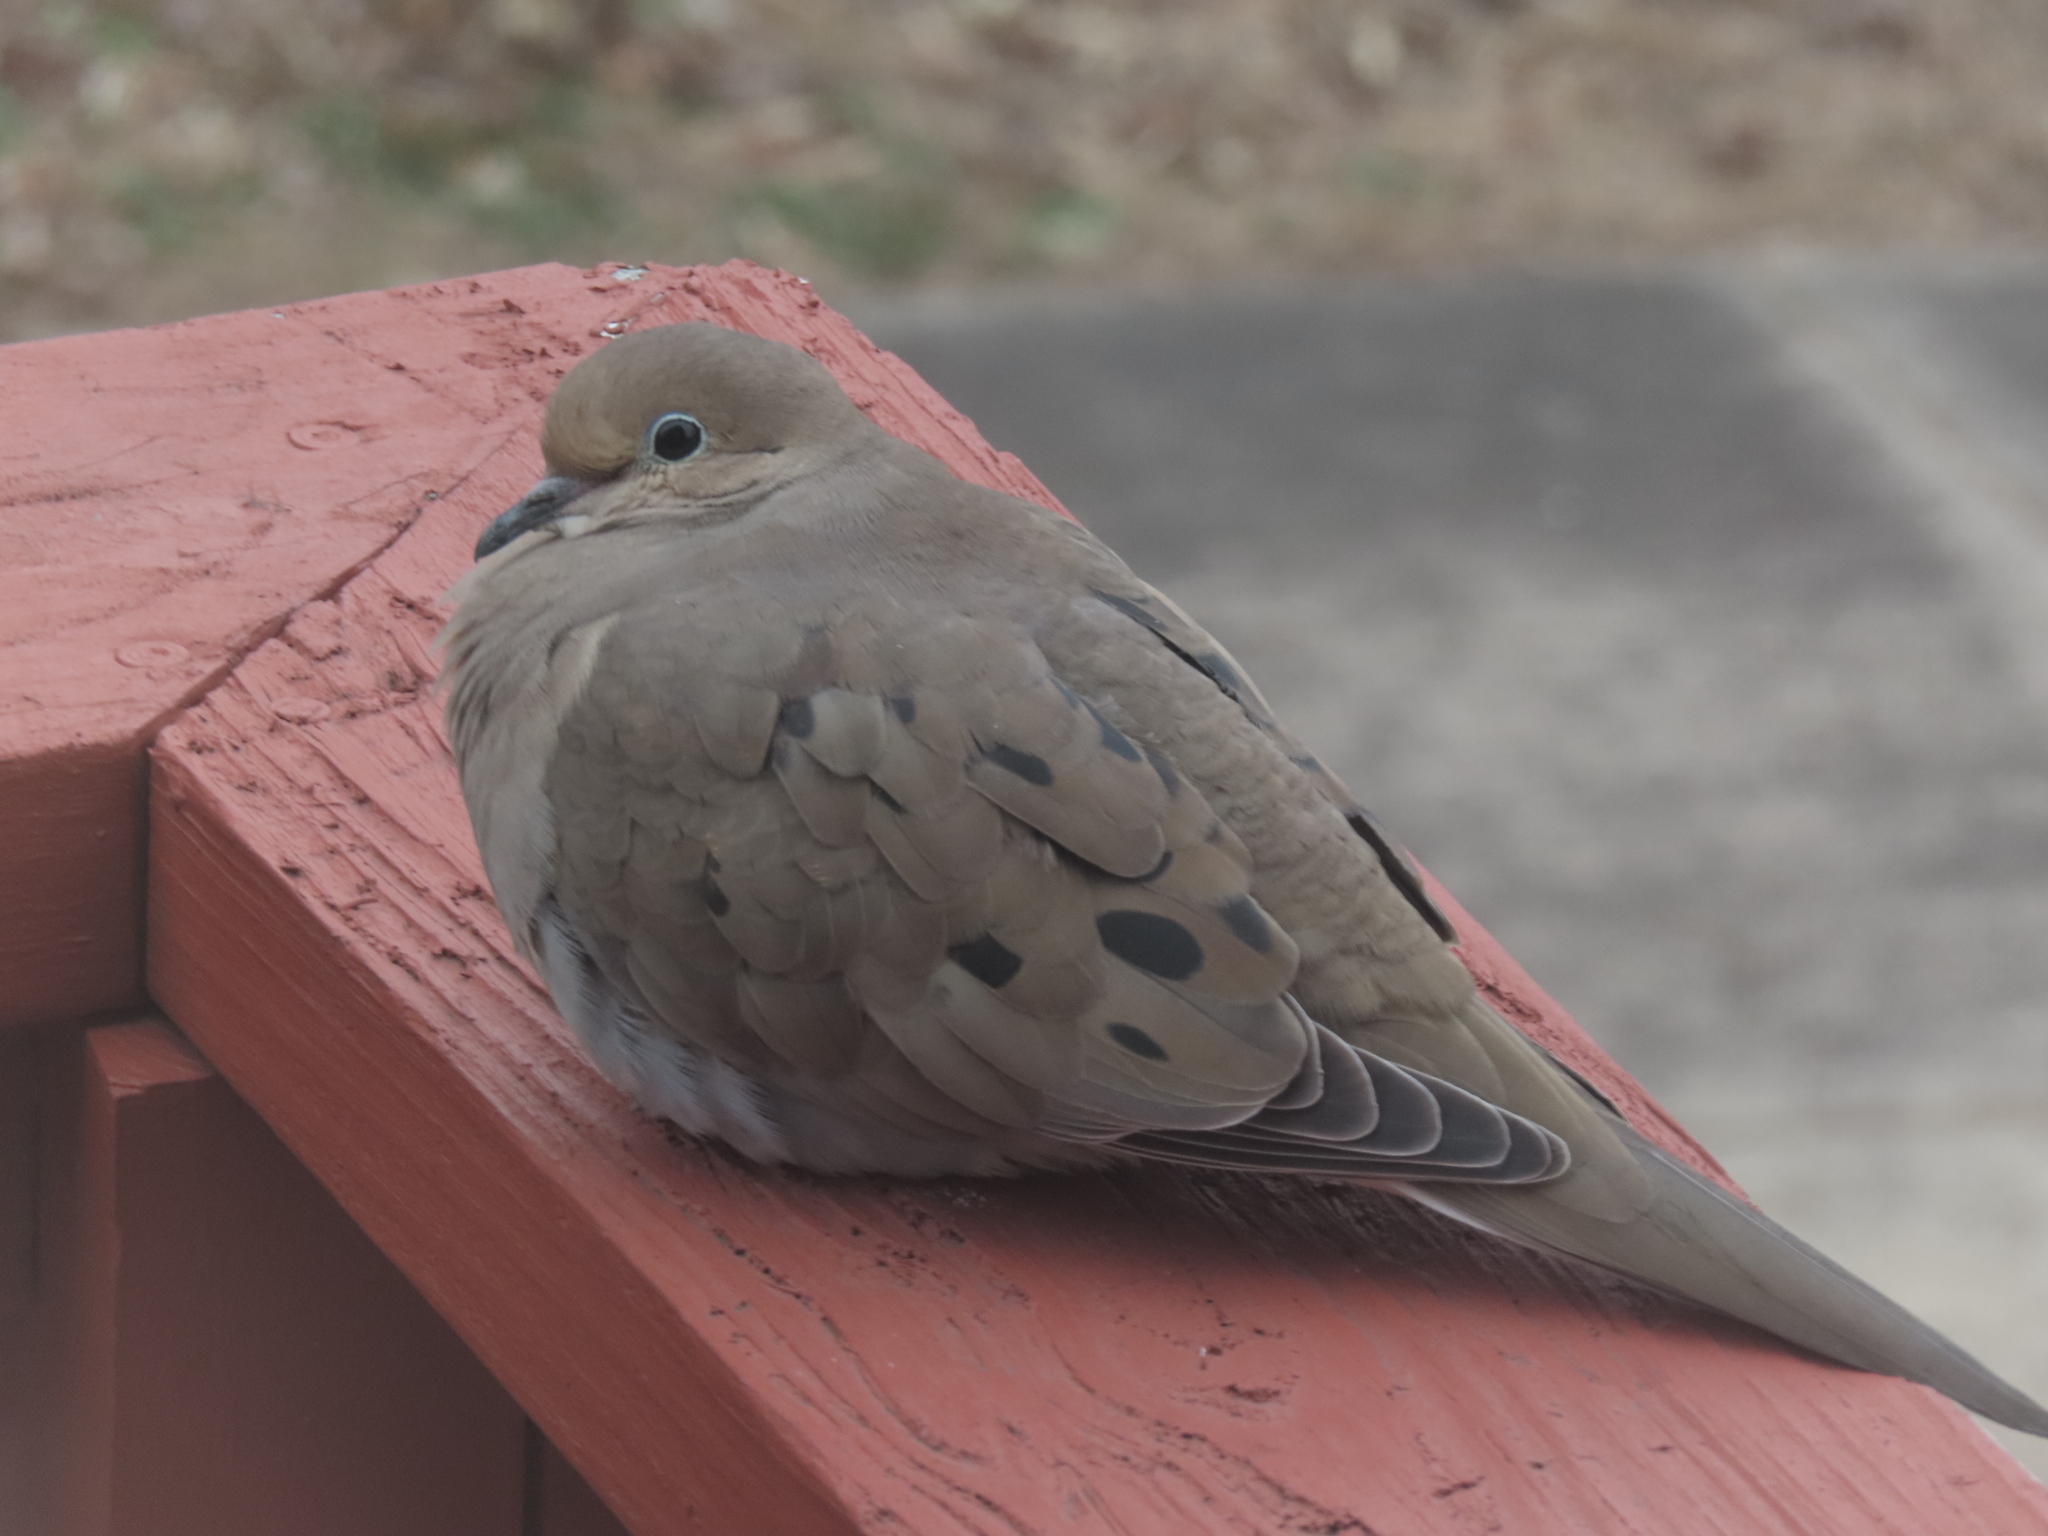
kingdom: Animalia
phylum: Chordata
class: Aves
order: Columbiformes
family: Columbidae
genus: Zenaida
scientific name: Zenaida macroura
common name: Mourning dove
